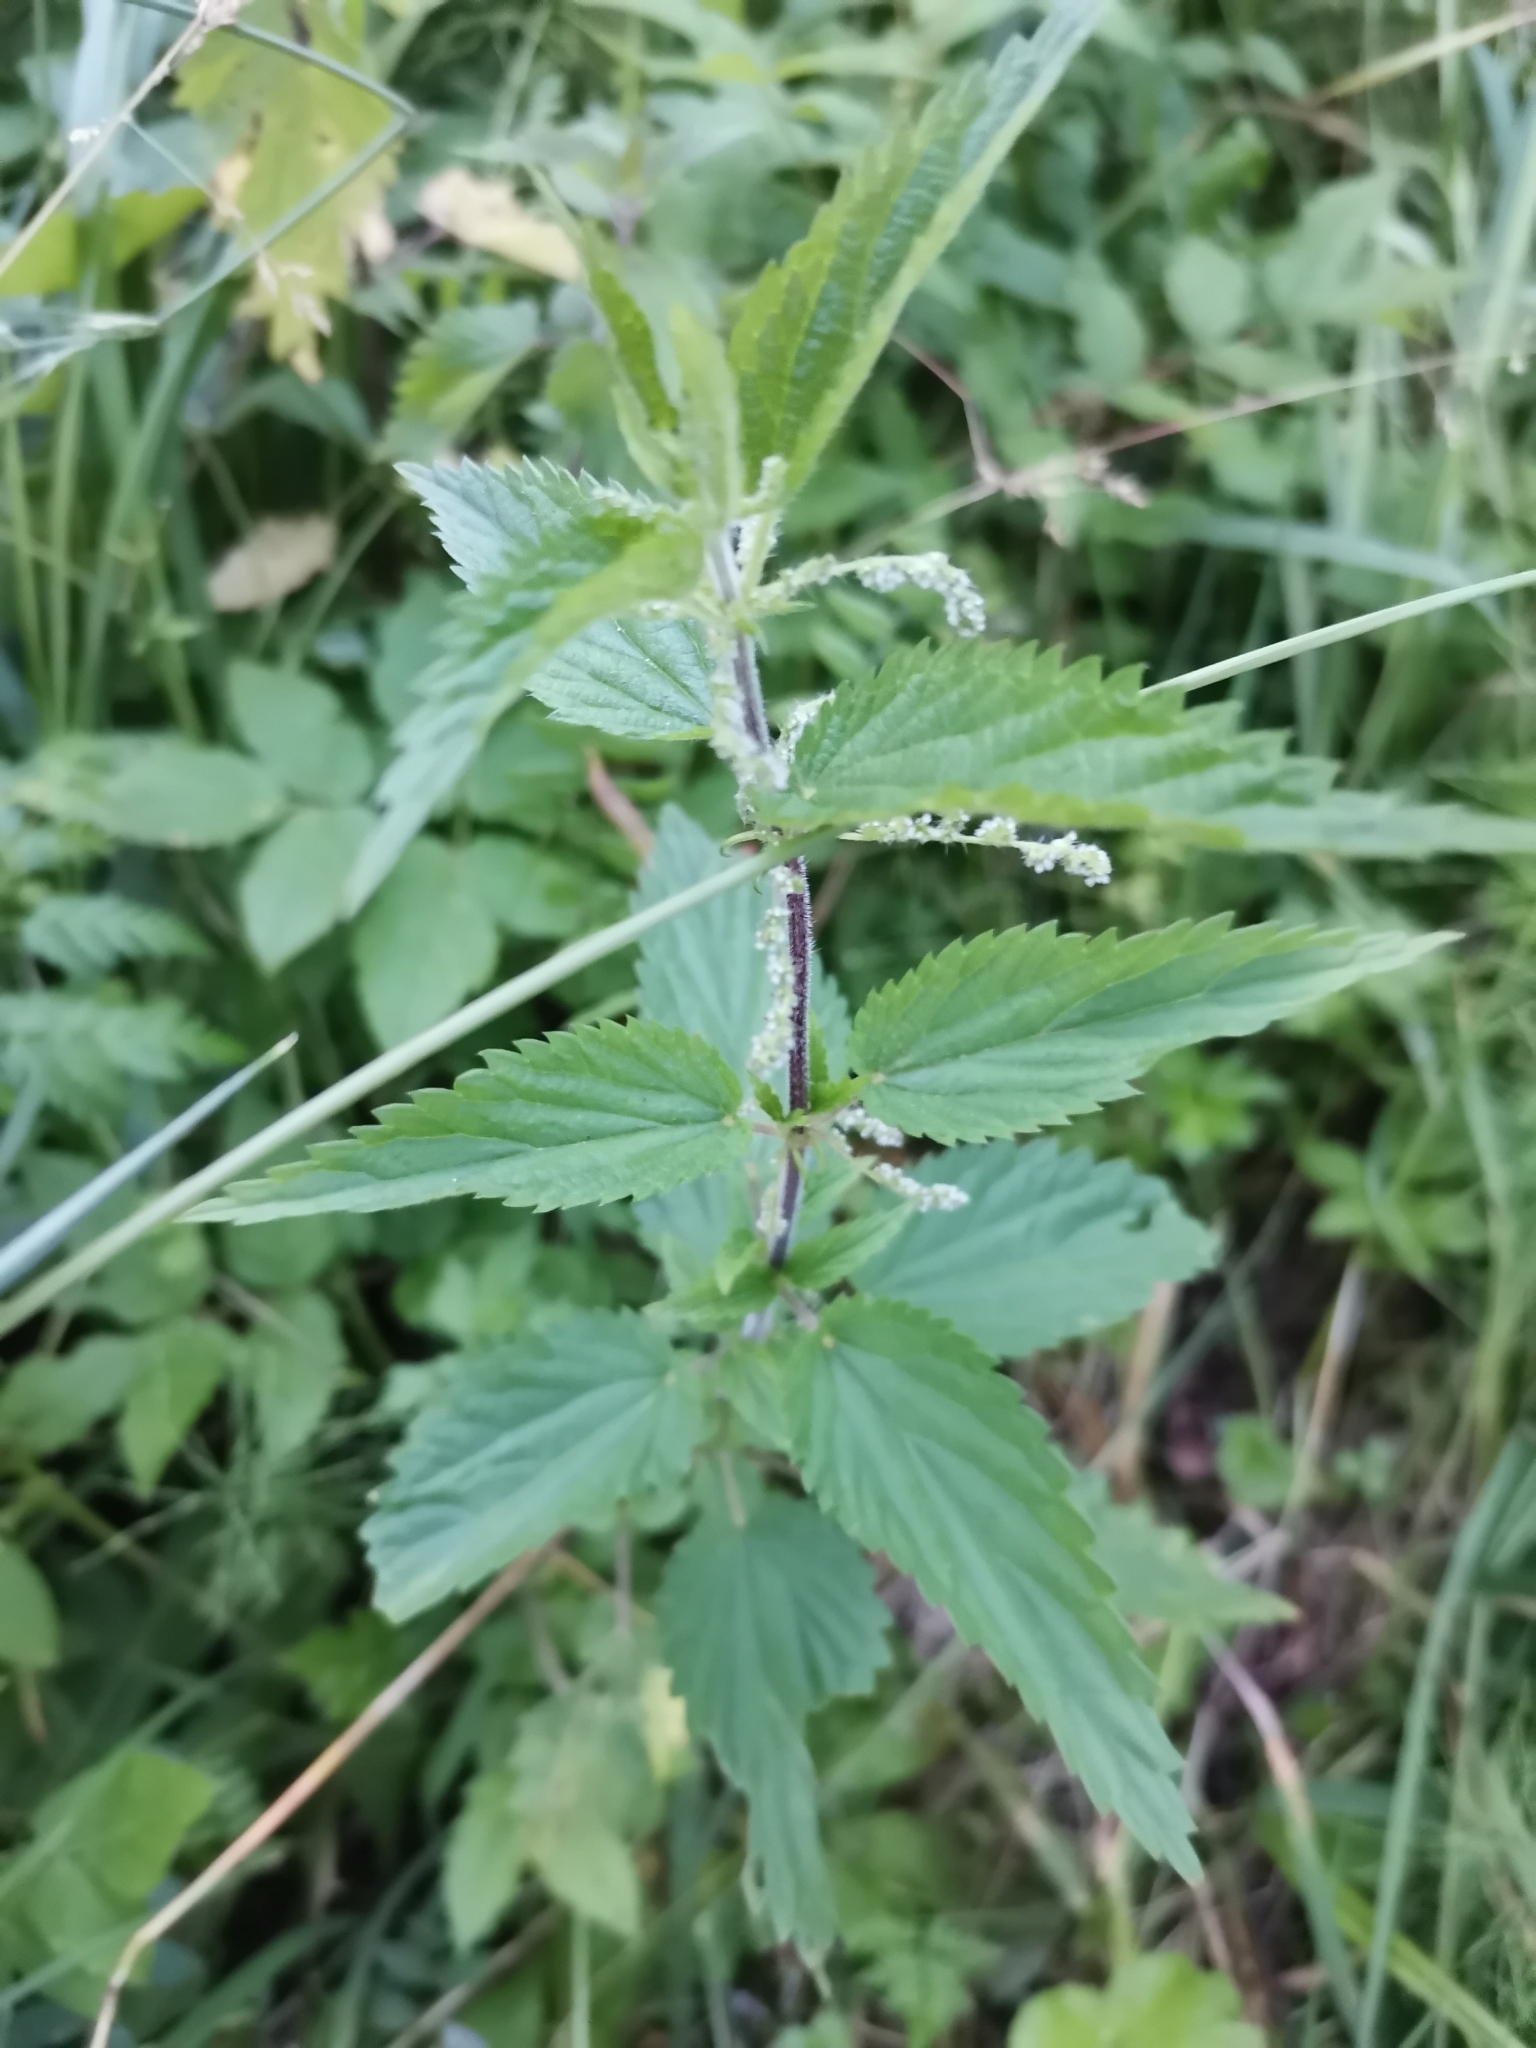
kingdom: Plantae
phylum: Tracheophyta
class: Magnoliopsida
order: Rosales
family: Urticaceae
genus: Urtica
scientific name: Urtica dioica
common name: Common nettle
